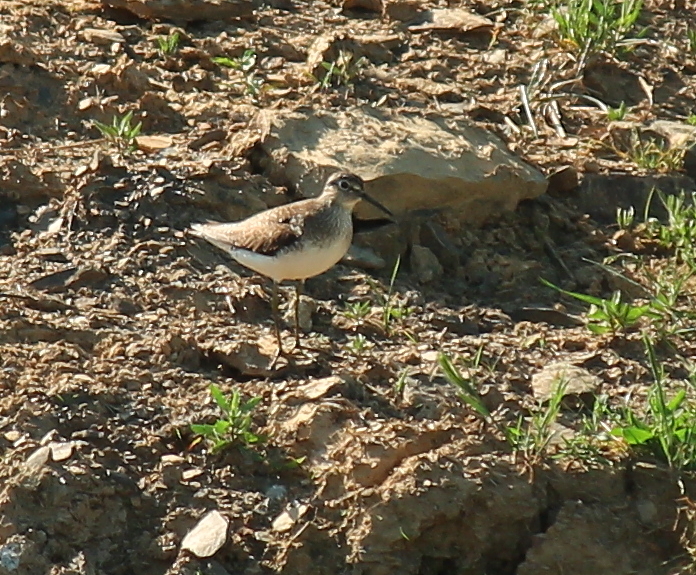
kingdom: Animalia
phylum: Chordata
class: Aves
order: Charadriiformes
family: Scolopacidae
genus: Tringa
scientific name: Tringa solitaria
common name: Solitary sandpiper
